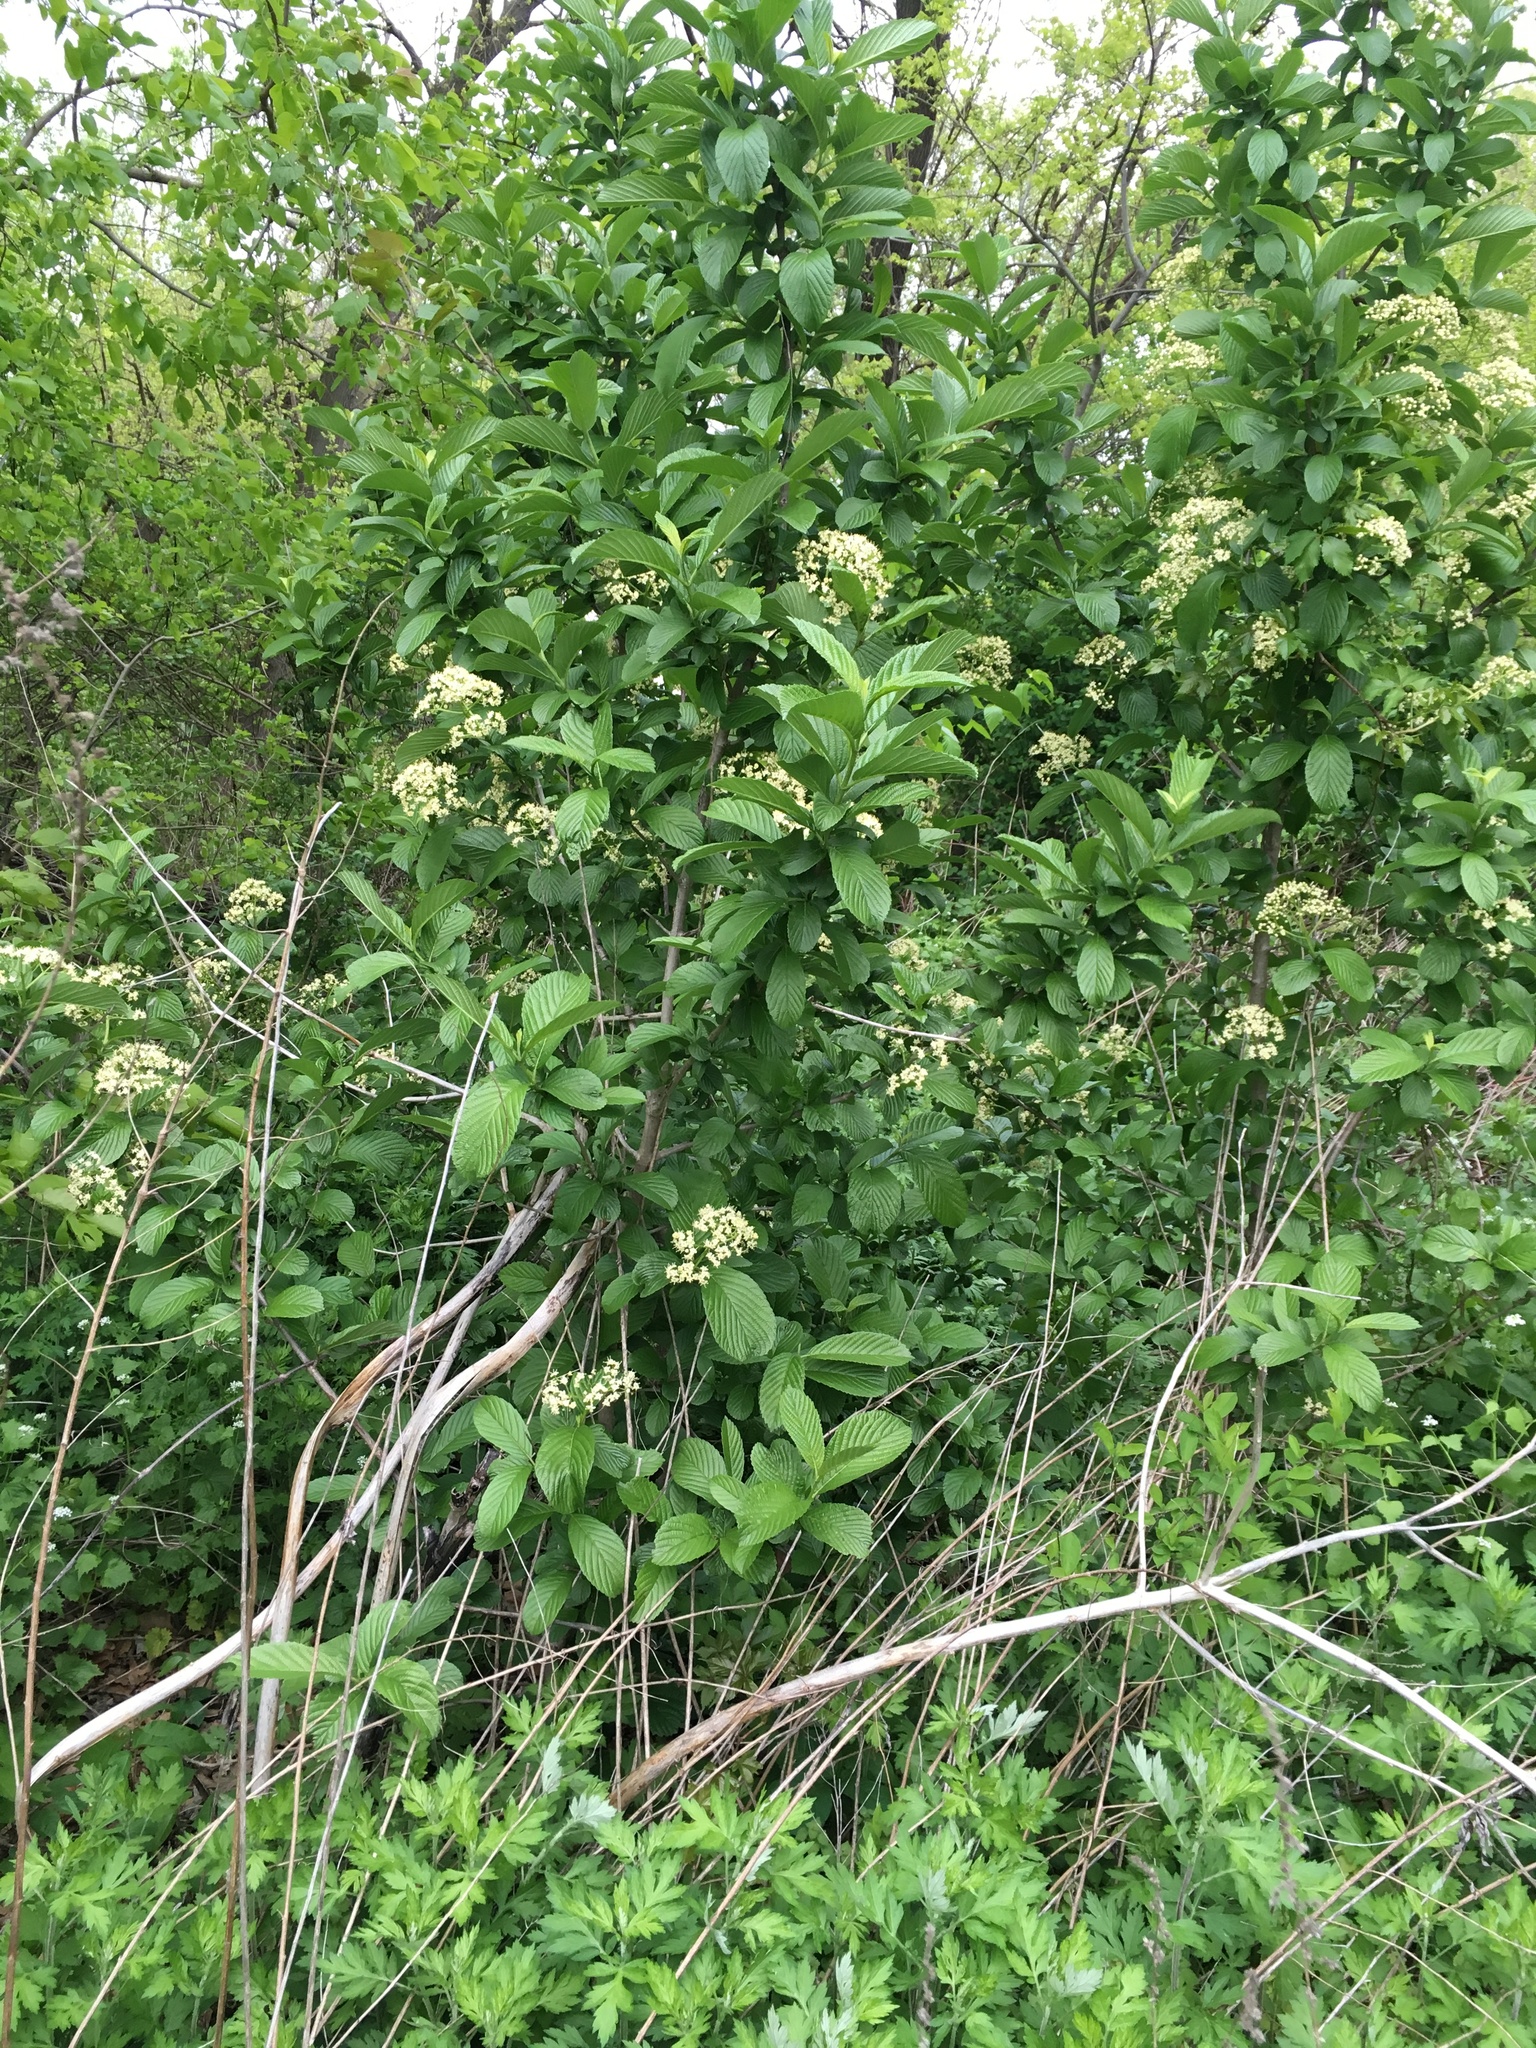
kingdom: Plantae
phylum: Tracheophyta
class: Magnoliopsida
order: Dipsacales
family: Viburnaceae
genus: Viburnum
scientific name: Viburnum sieboldii
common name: Siebold's arrowwood
